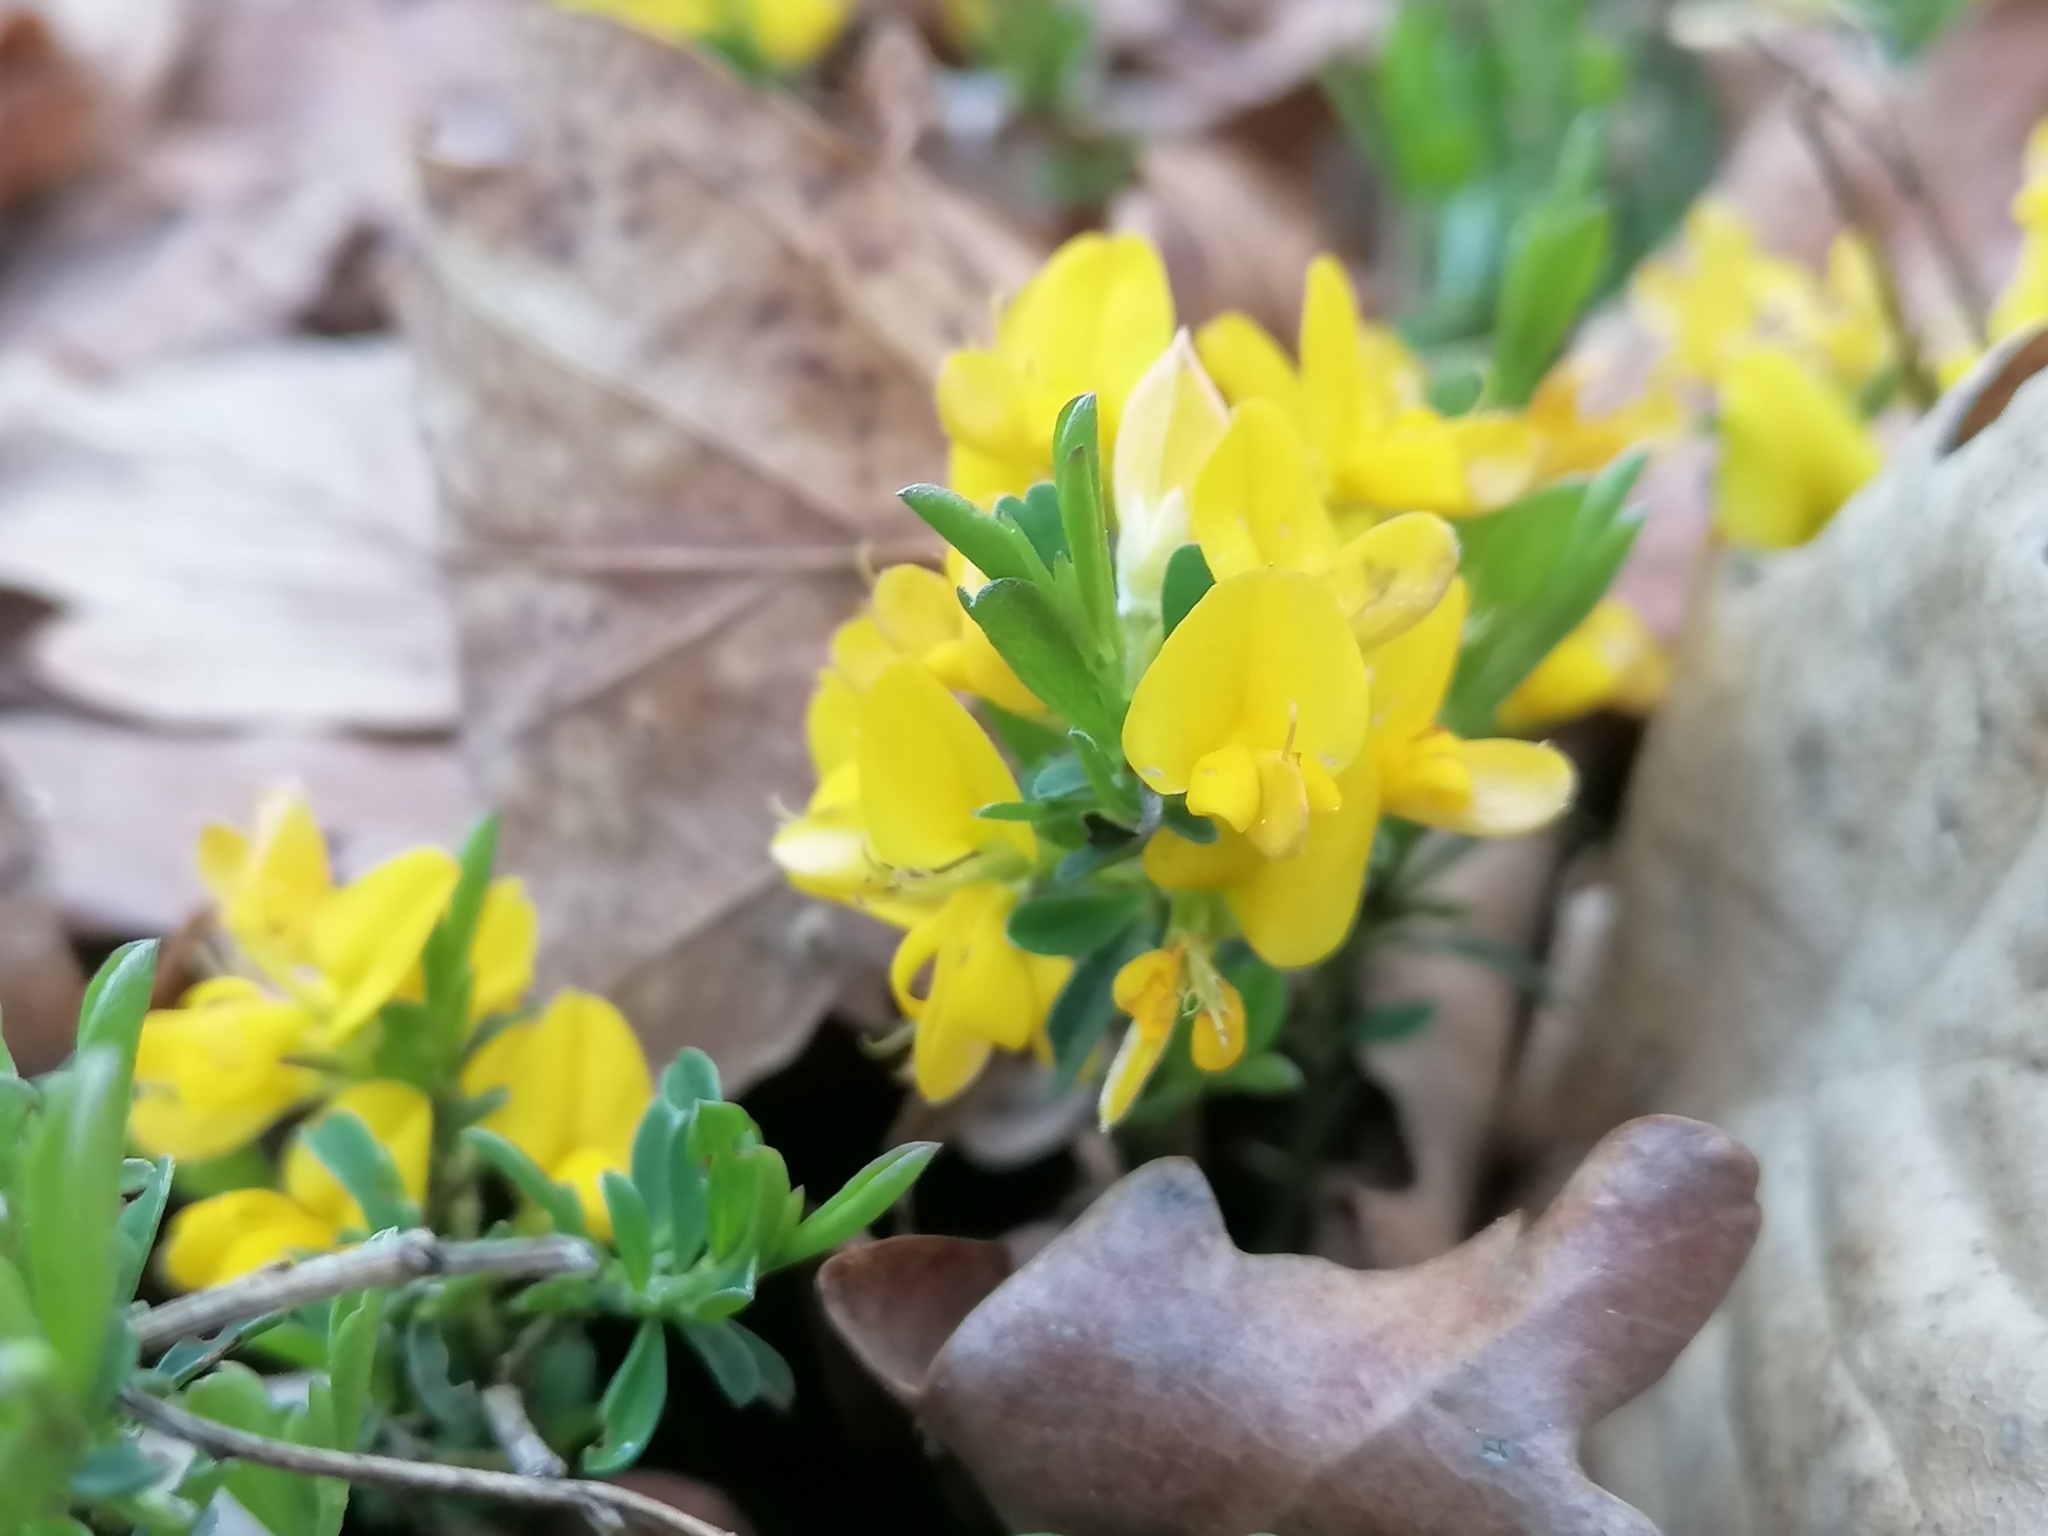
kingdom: Plantae
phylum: Tracheophyta
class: Magnoliopsida
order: Fabales
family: Fabaceae
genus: Genista
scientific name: Genista pilosa
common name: Hairy greenweed
